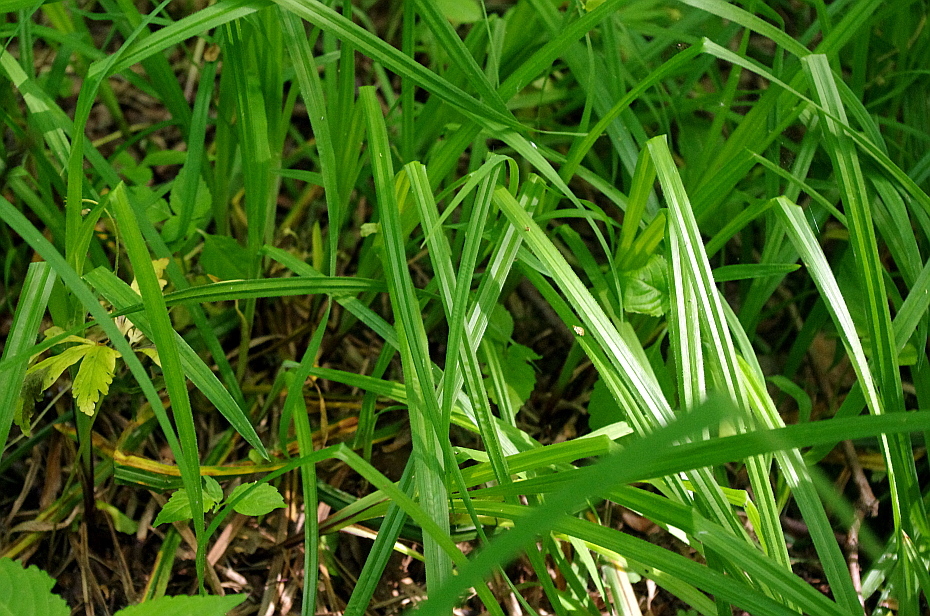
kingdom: Plantae
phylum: Tracheophyta
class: Liliopsida
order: Poales
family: Cyperaceae
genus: Carex
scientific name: Carex pilosa
